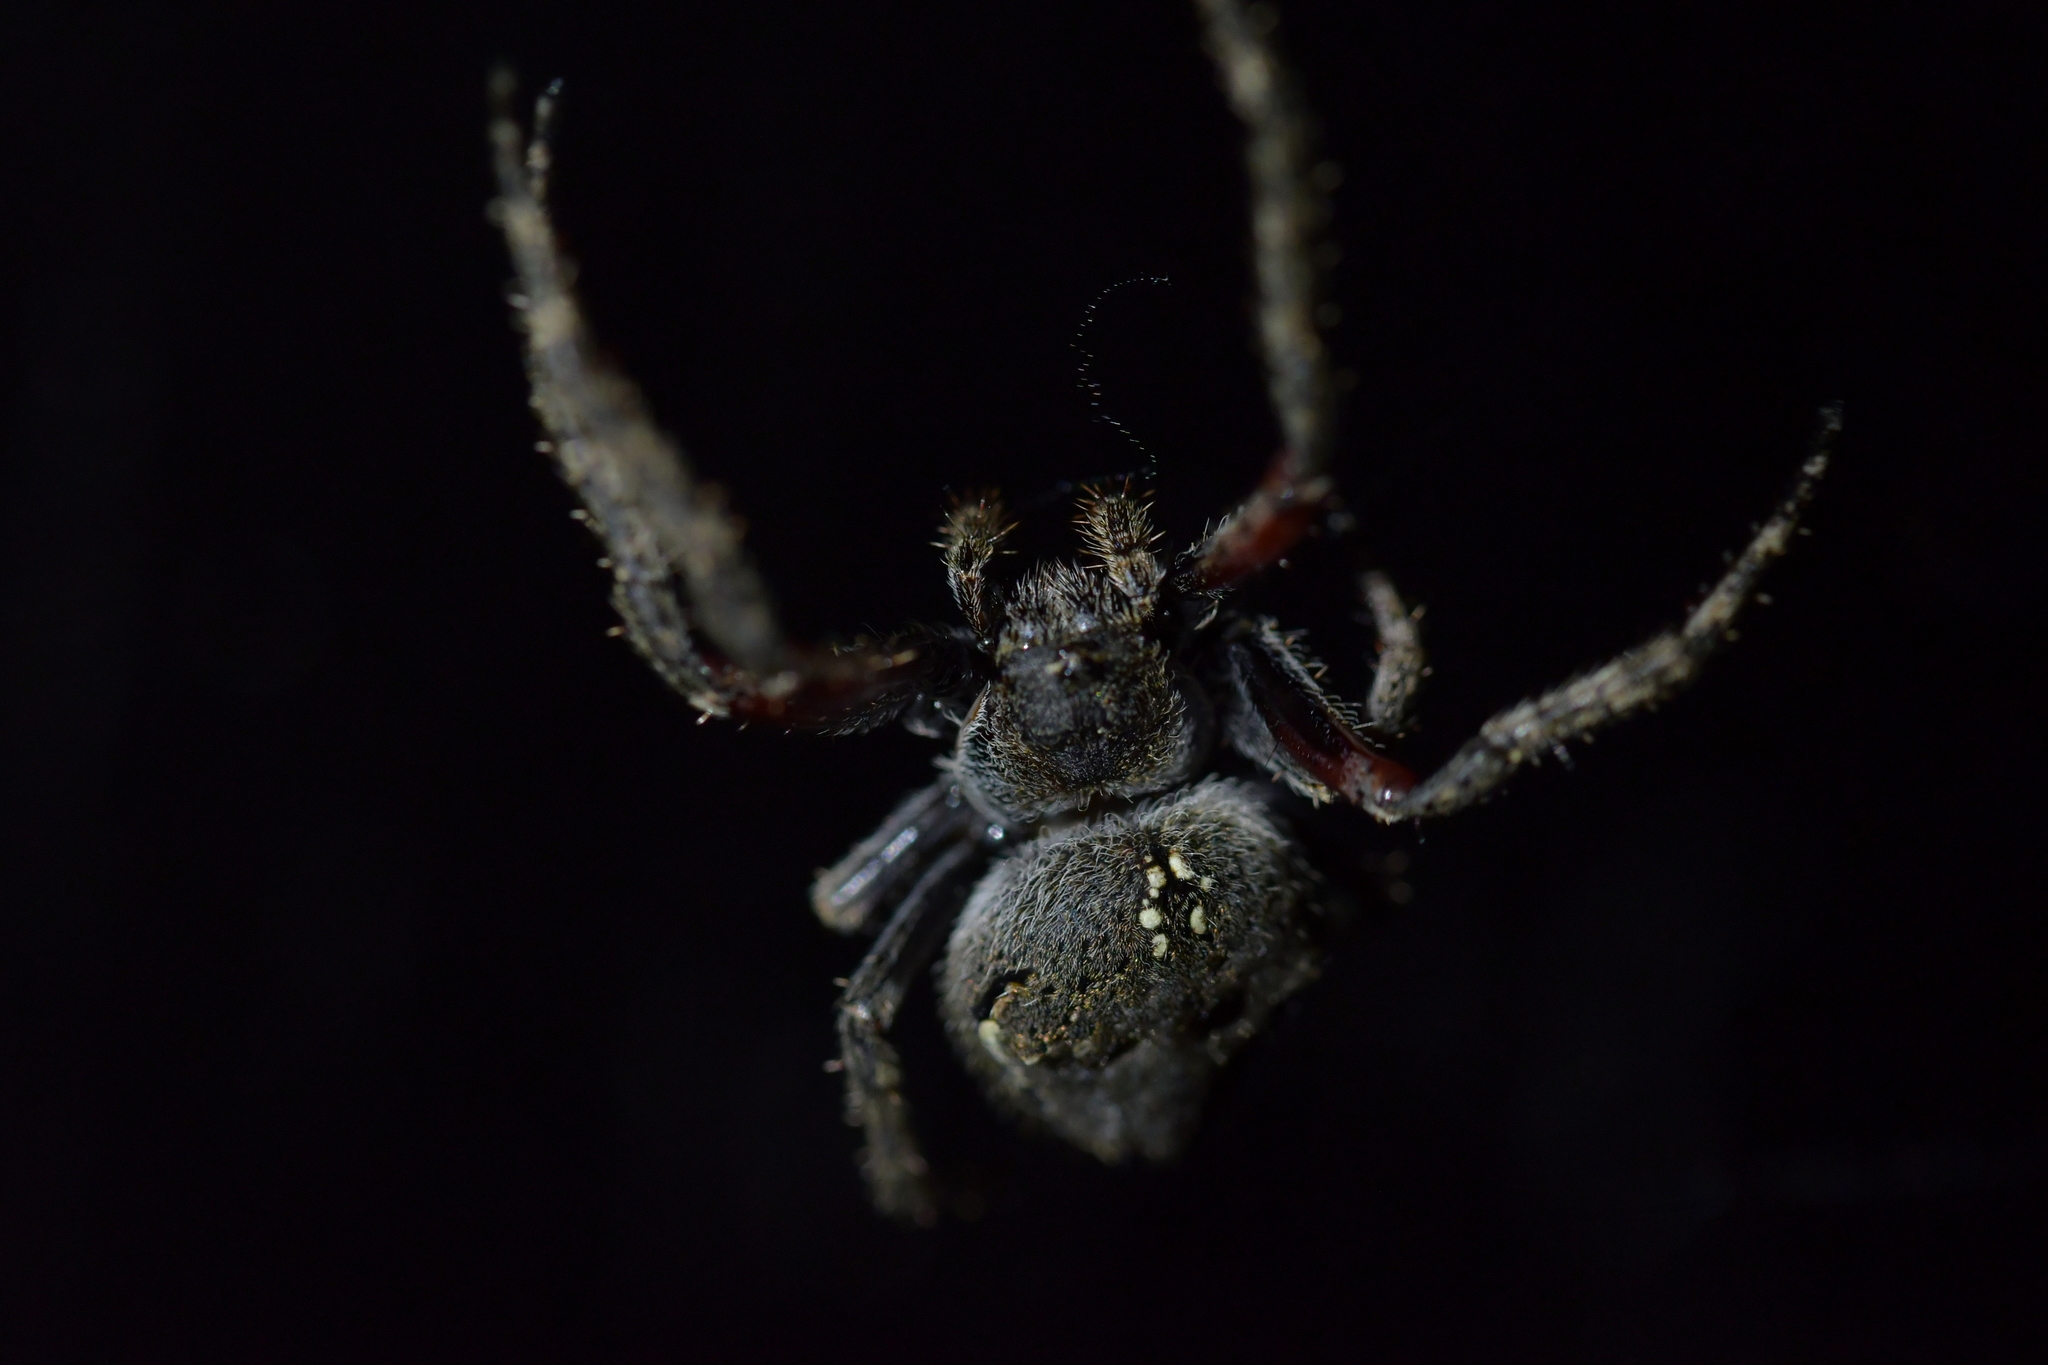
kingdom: Animalia
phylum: Arthropoda
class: Arachnida
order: Araneae
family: Araneidae
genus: Eriophora
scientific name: Eriophora pustulosa
